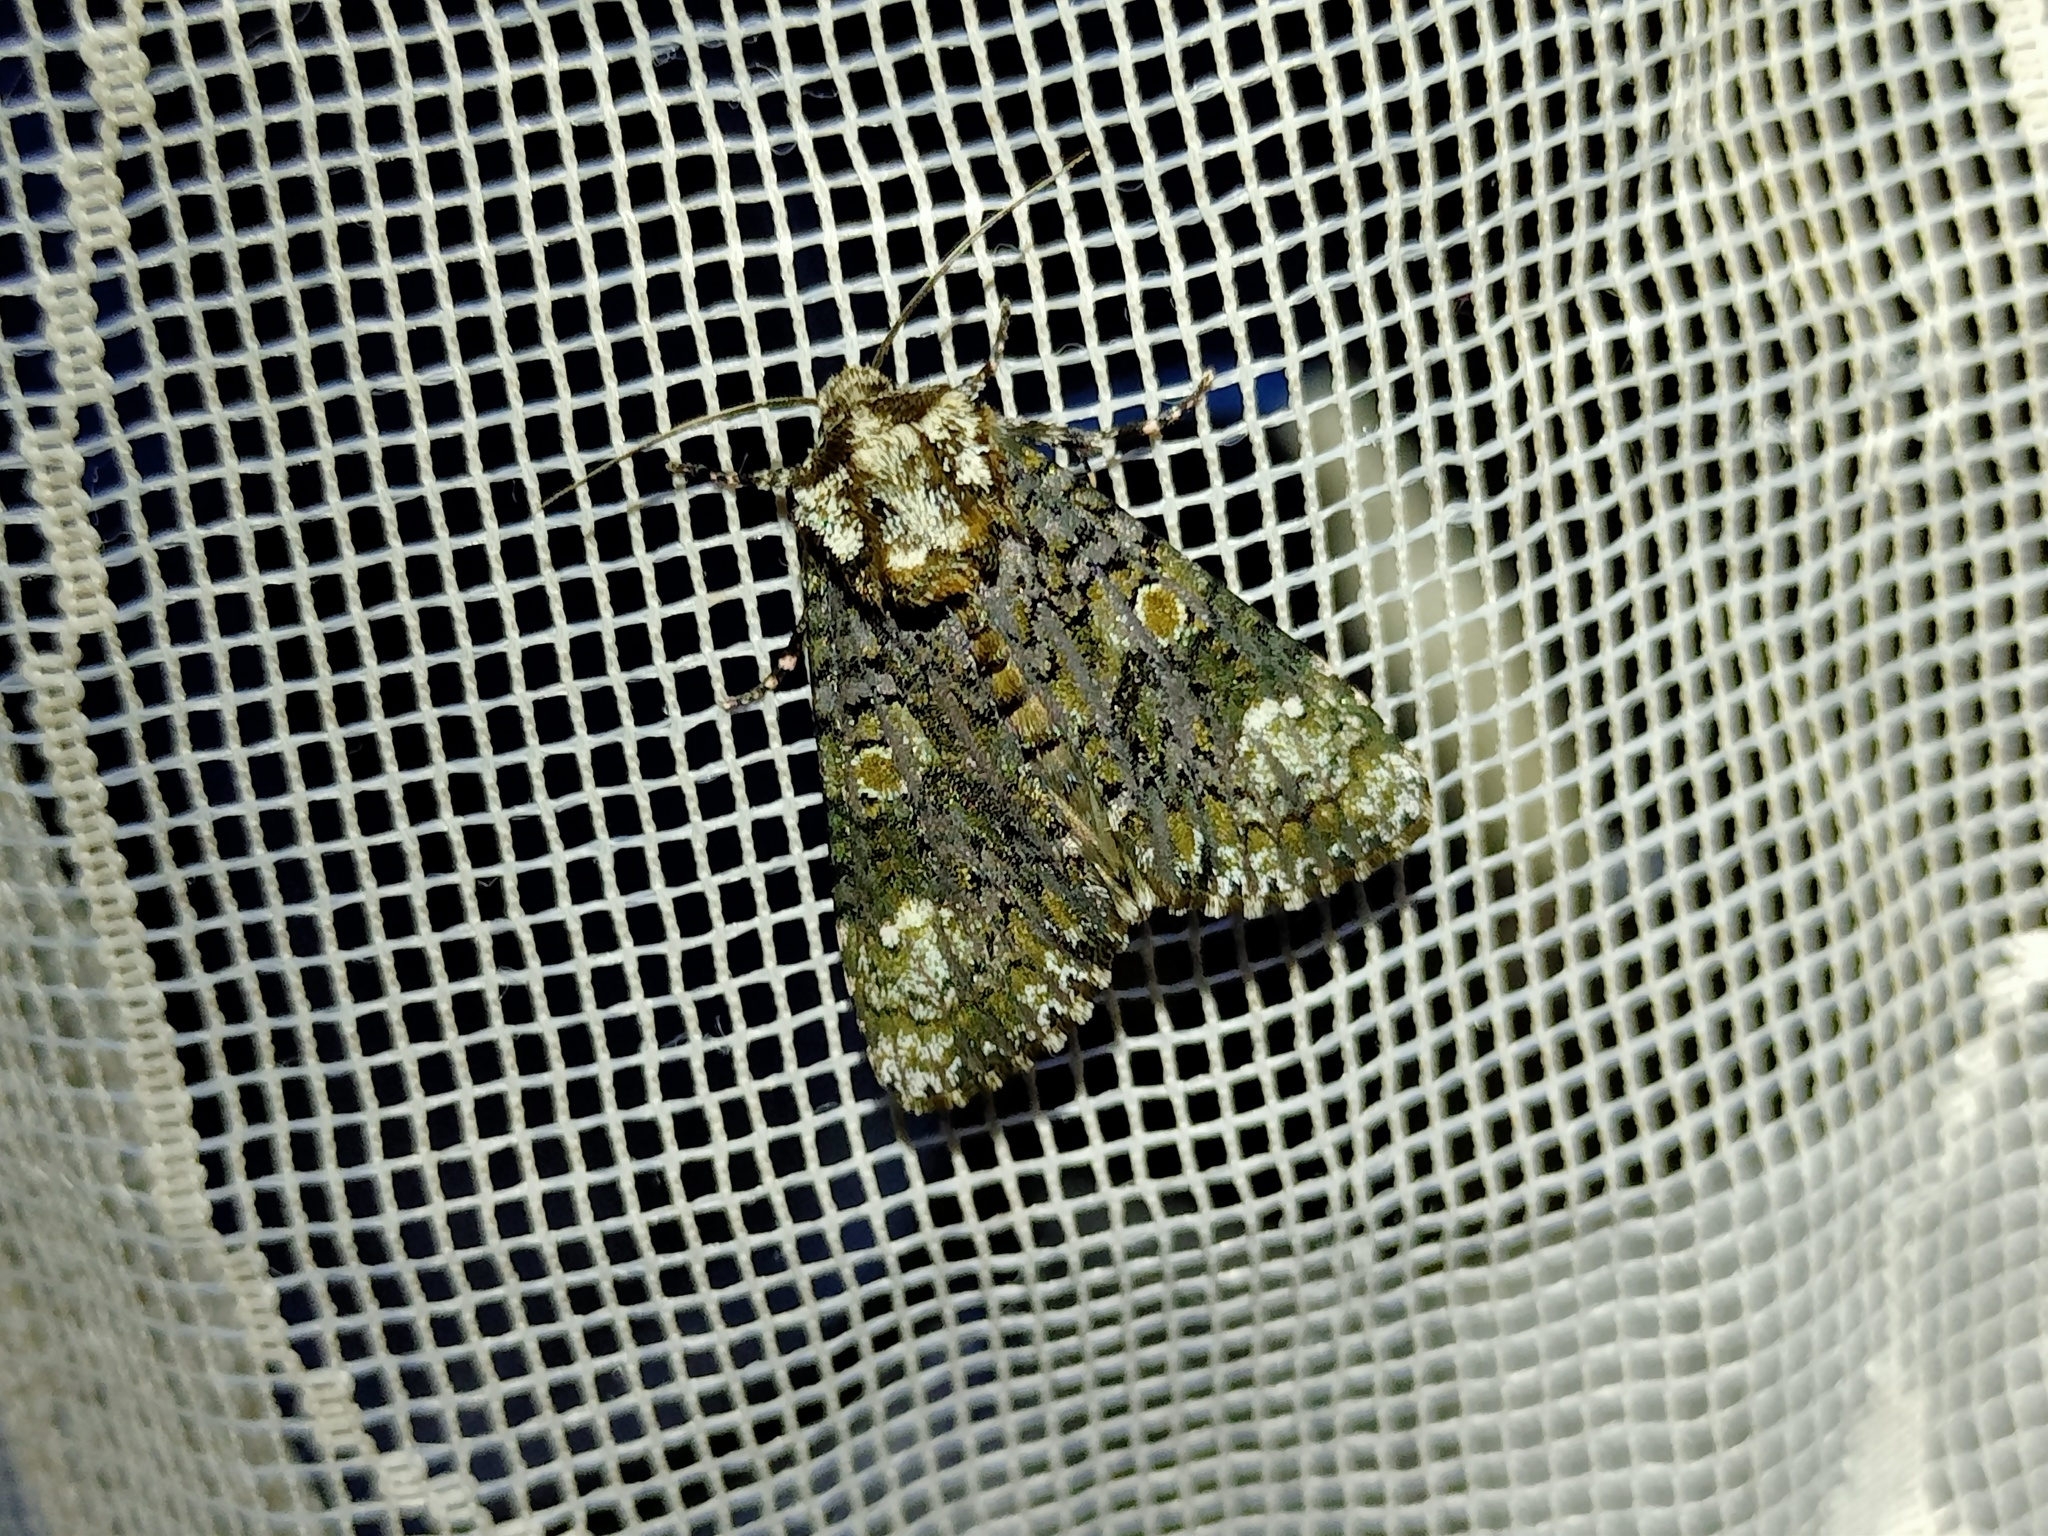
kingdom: Animalia
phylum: Arthropoda
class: Insecta
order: Lepidoptera
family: Noctuidae
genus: Craniophora
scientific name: Craniophora ligustri
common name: Coronet
